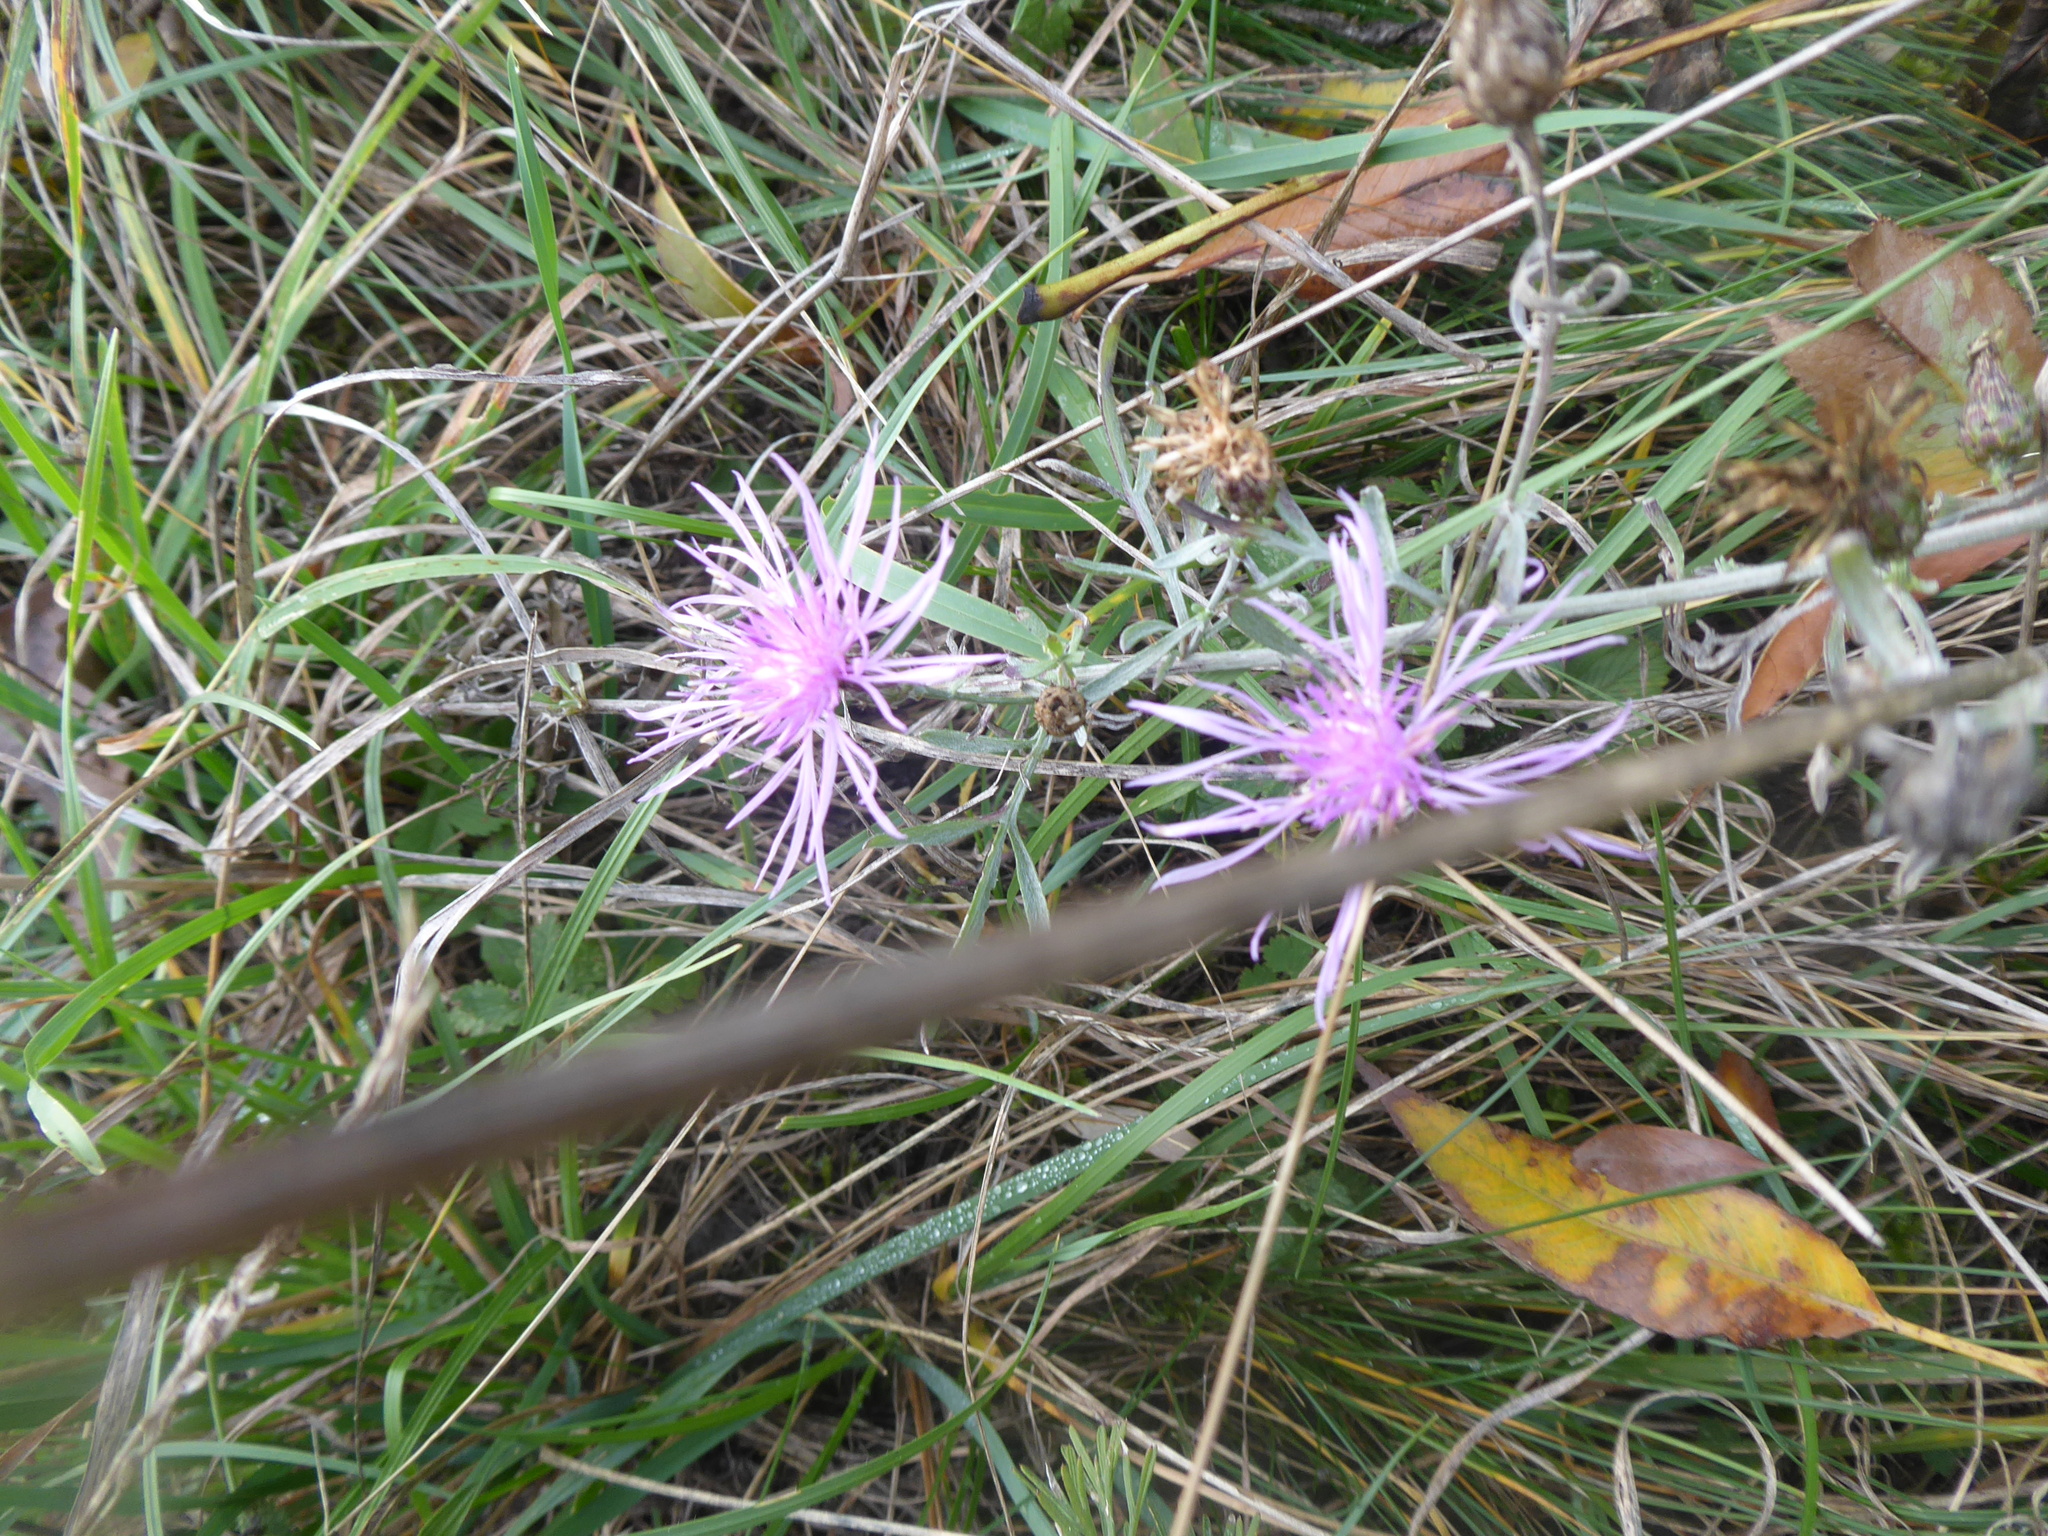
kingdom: Plantae
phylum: Tracheophyta
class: Magnoliopsida
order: Asterales
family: Asteraceae
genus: Centaurea
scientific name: Centaurea stoebe
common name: Spotted knapweed
